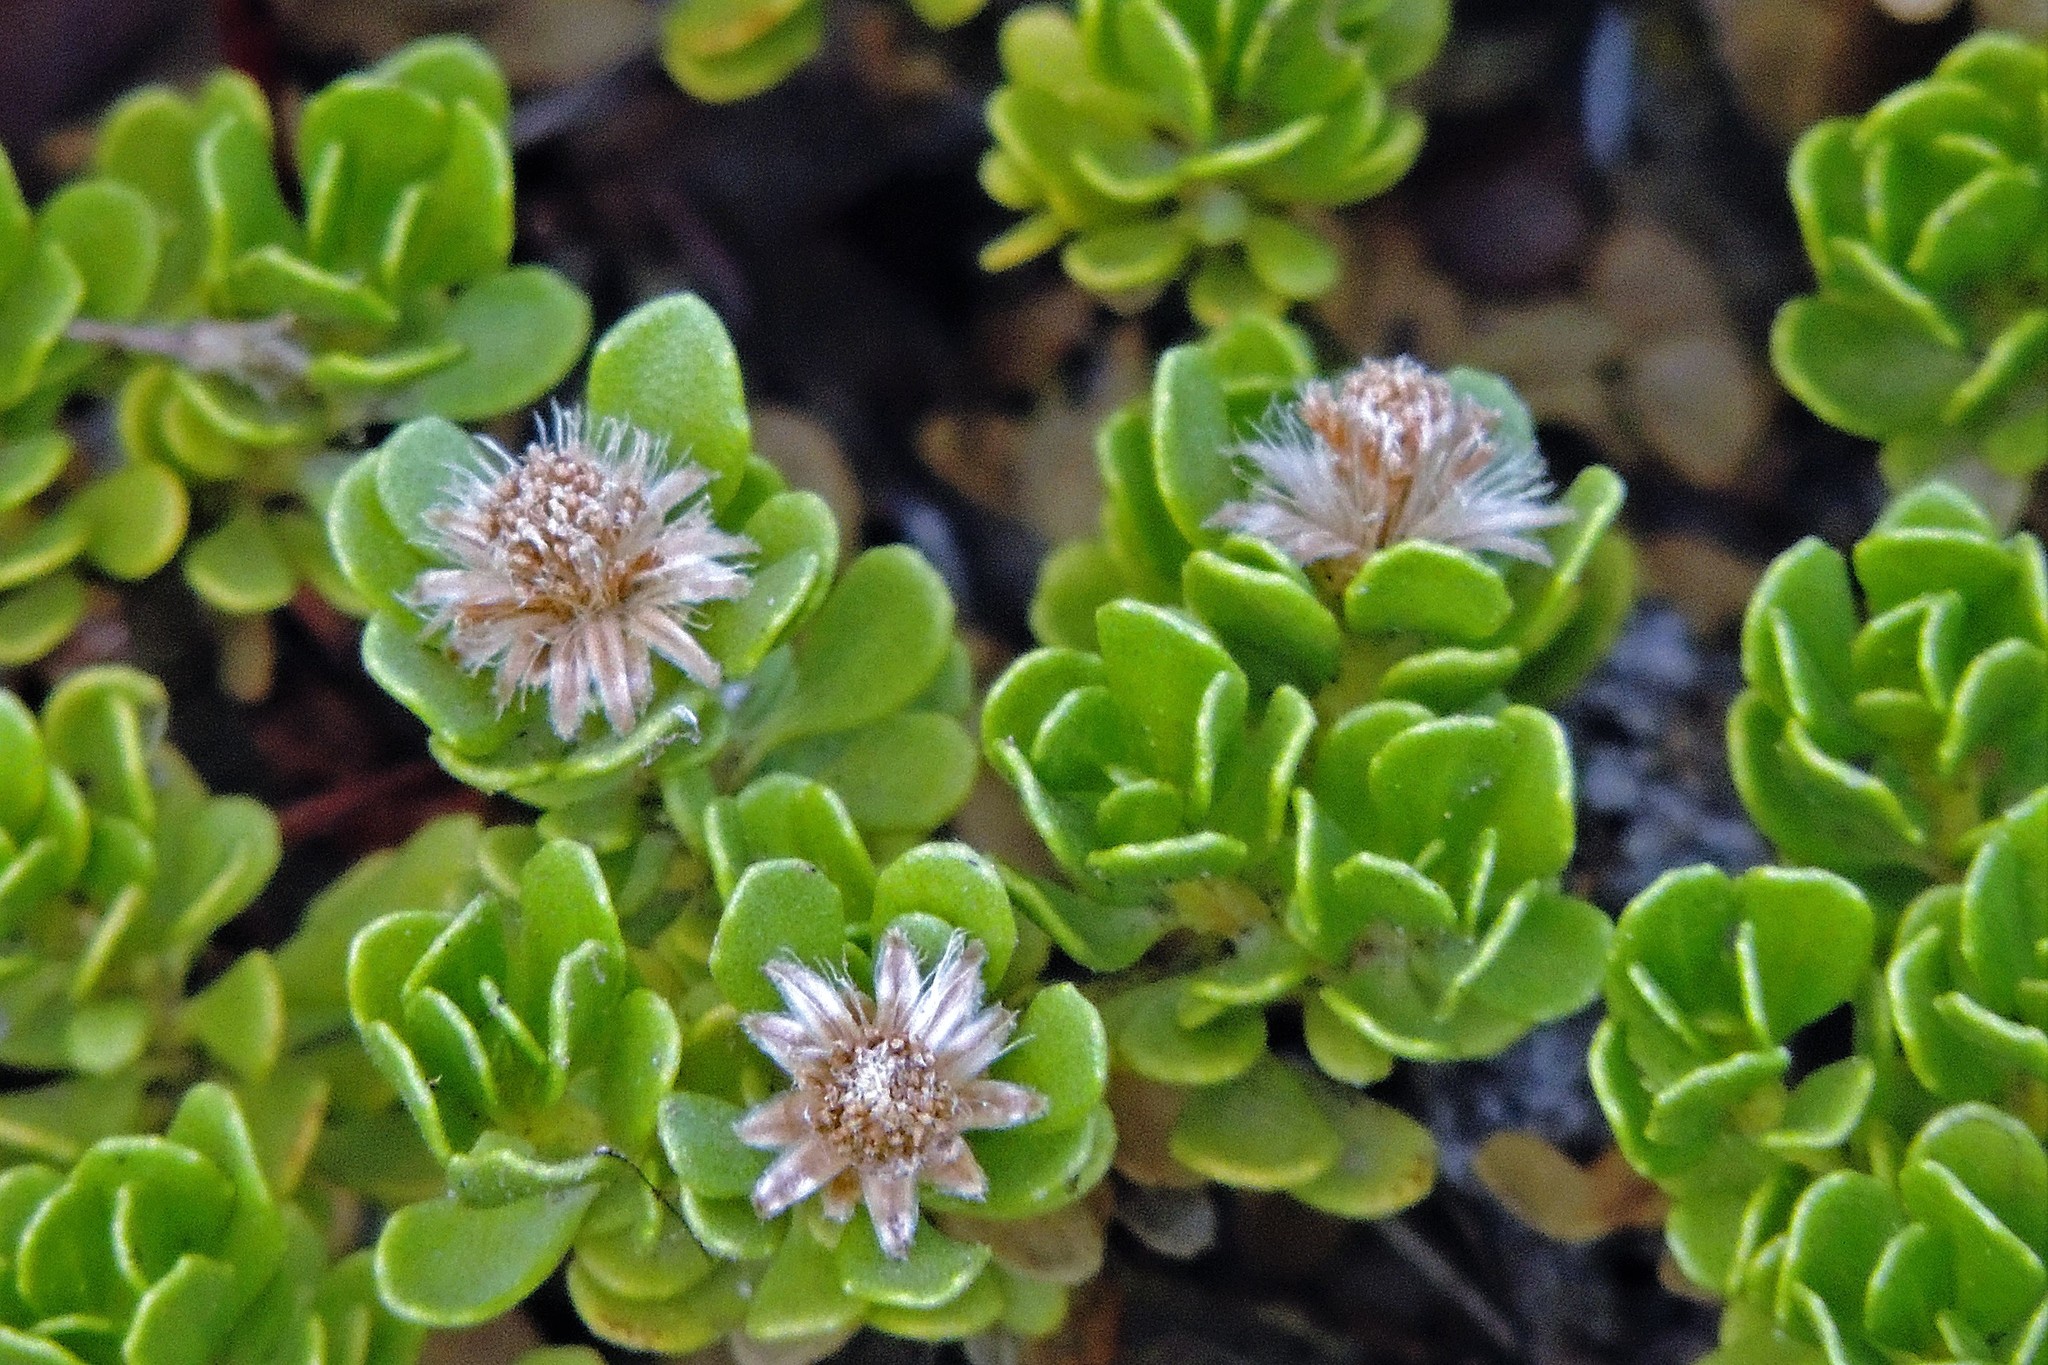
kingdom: Plantae
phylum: Tracheophyta
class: Magnoliopsida
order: Asterales
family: Asteraceae
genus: Baccharis
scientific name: Baccharis magellanica
